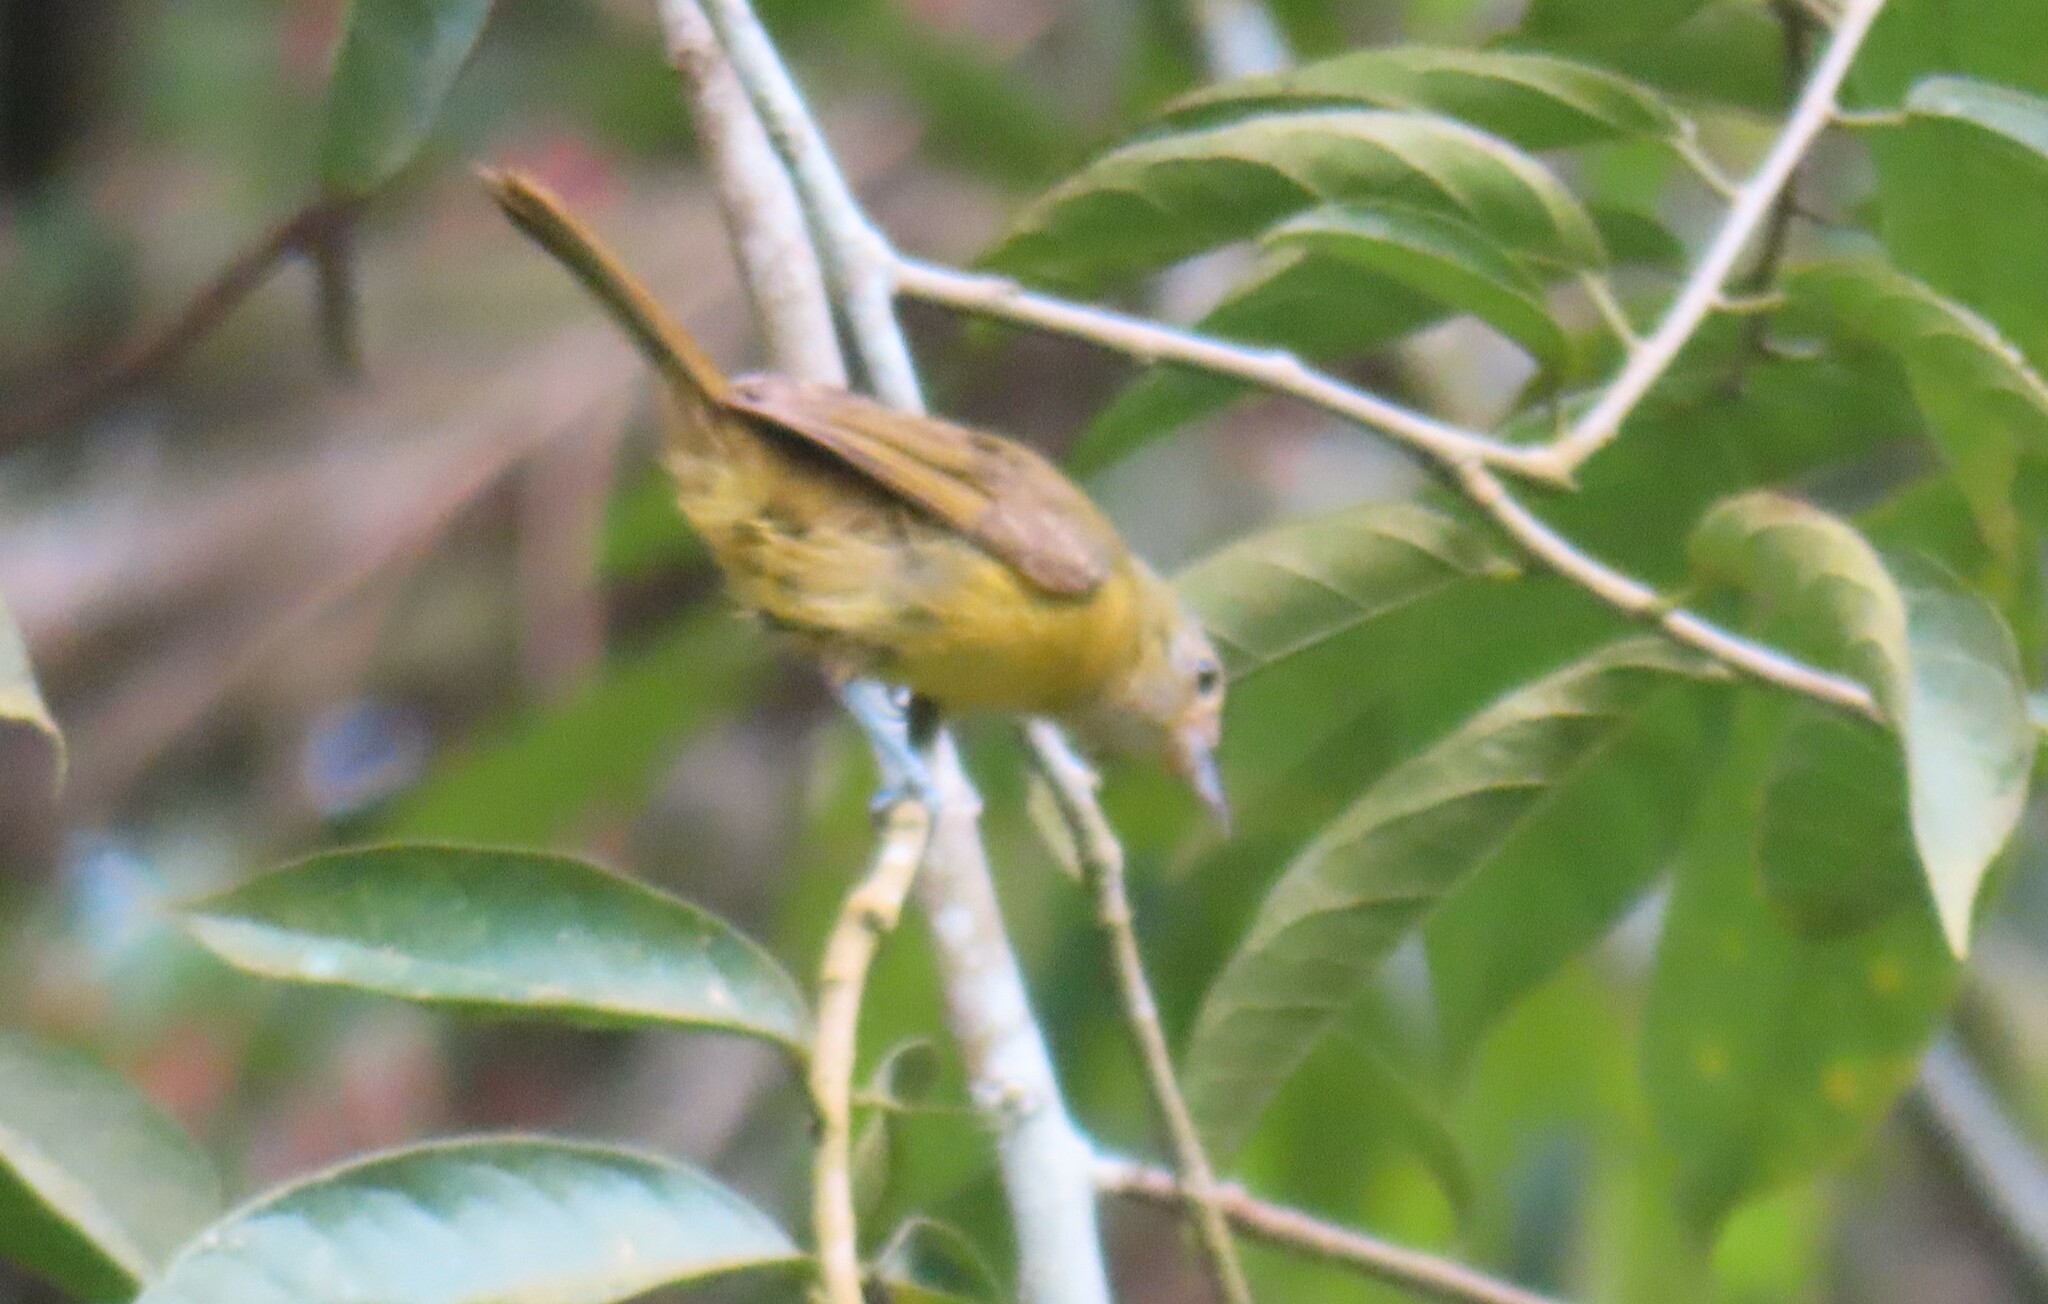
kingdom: Animalia
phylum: Chordata
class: Aves
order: Passeriformes
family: Thraupidae
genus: Loriotus
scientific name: Loriotus luctuosus
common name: White-shouldered tanager
